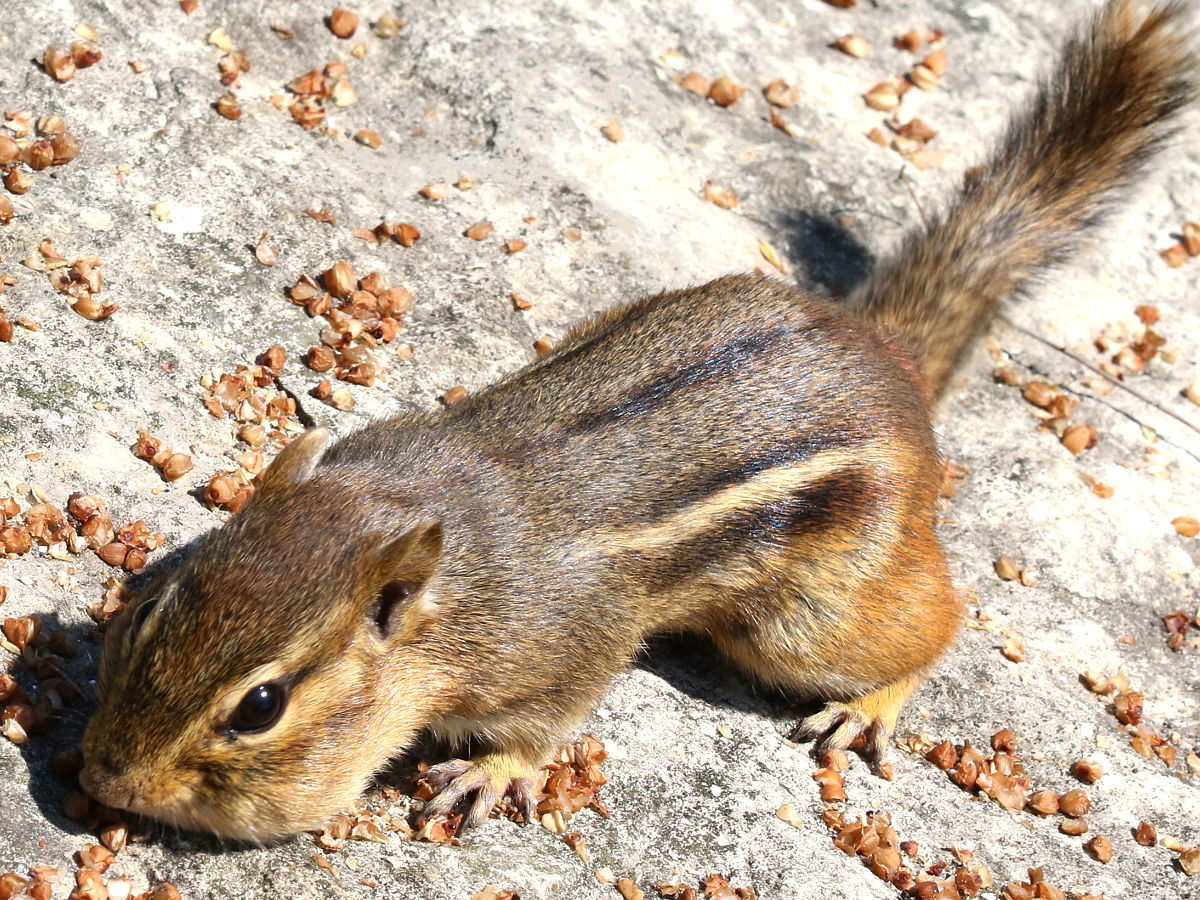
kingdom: Animalia
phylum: Chordata
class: Mammalia
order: Rodentia
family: Sciuridae
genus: Tamias
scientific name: Tamias striatus
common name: Eastern chipmunk
